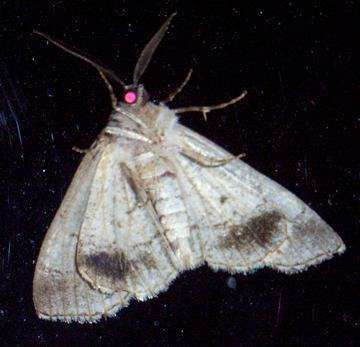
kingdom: Animalia
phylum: Arthropoda
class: Insecta
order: Lepidoptera
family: Geometridae
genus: Smyriodes
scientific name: Smyriodes aplectaria
